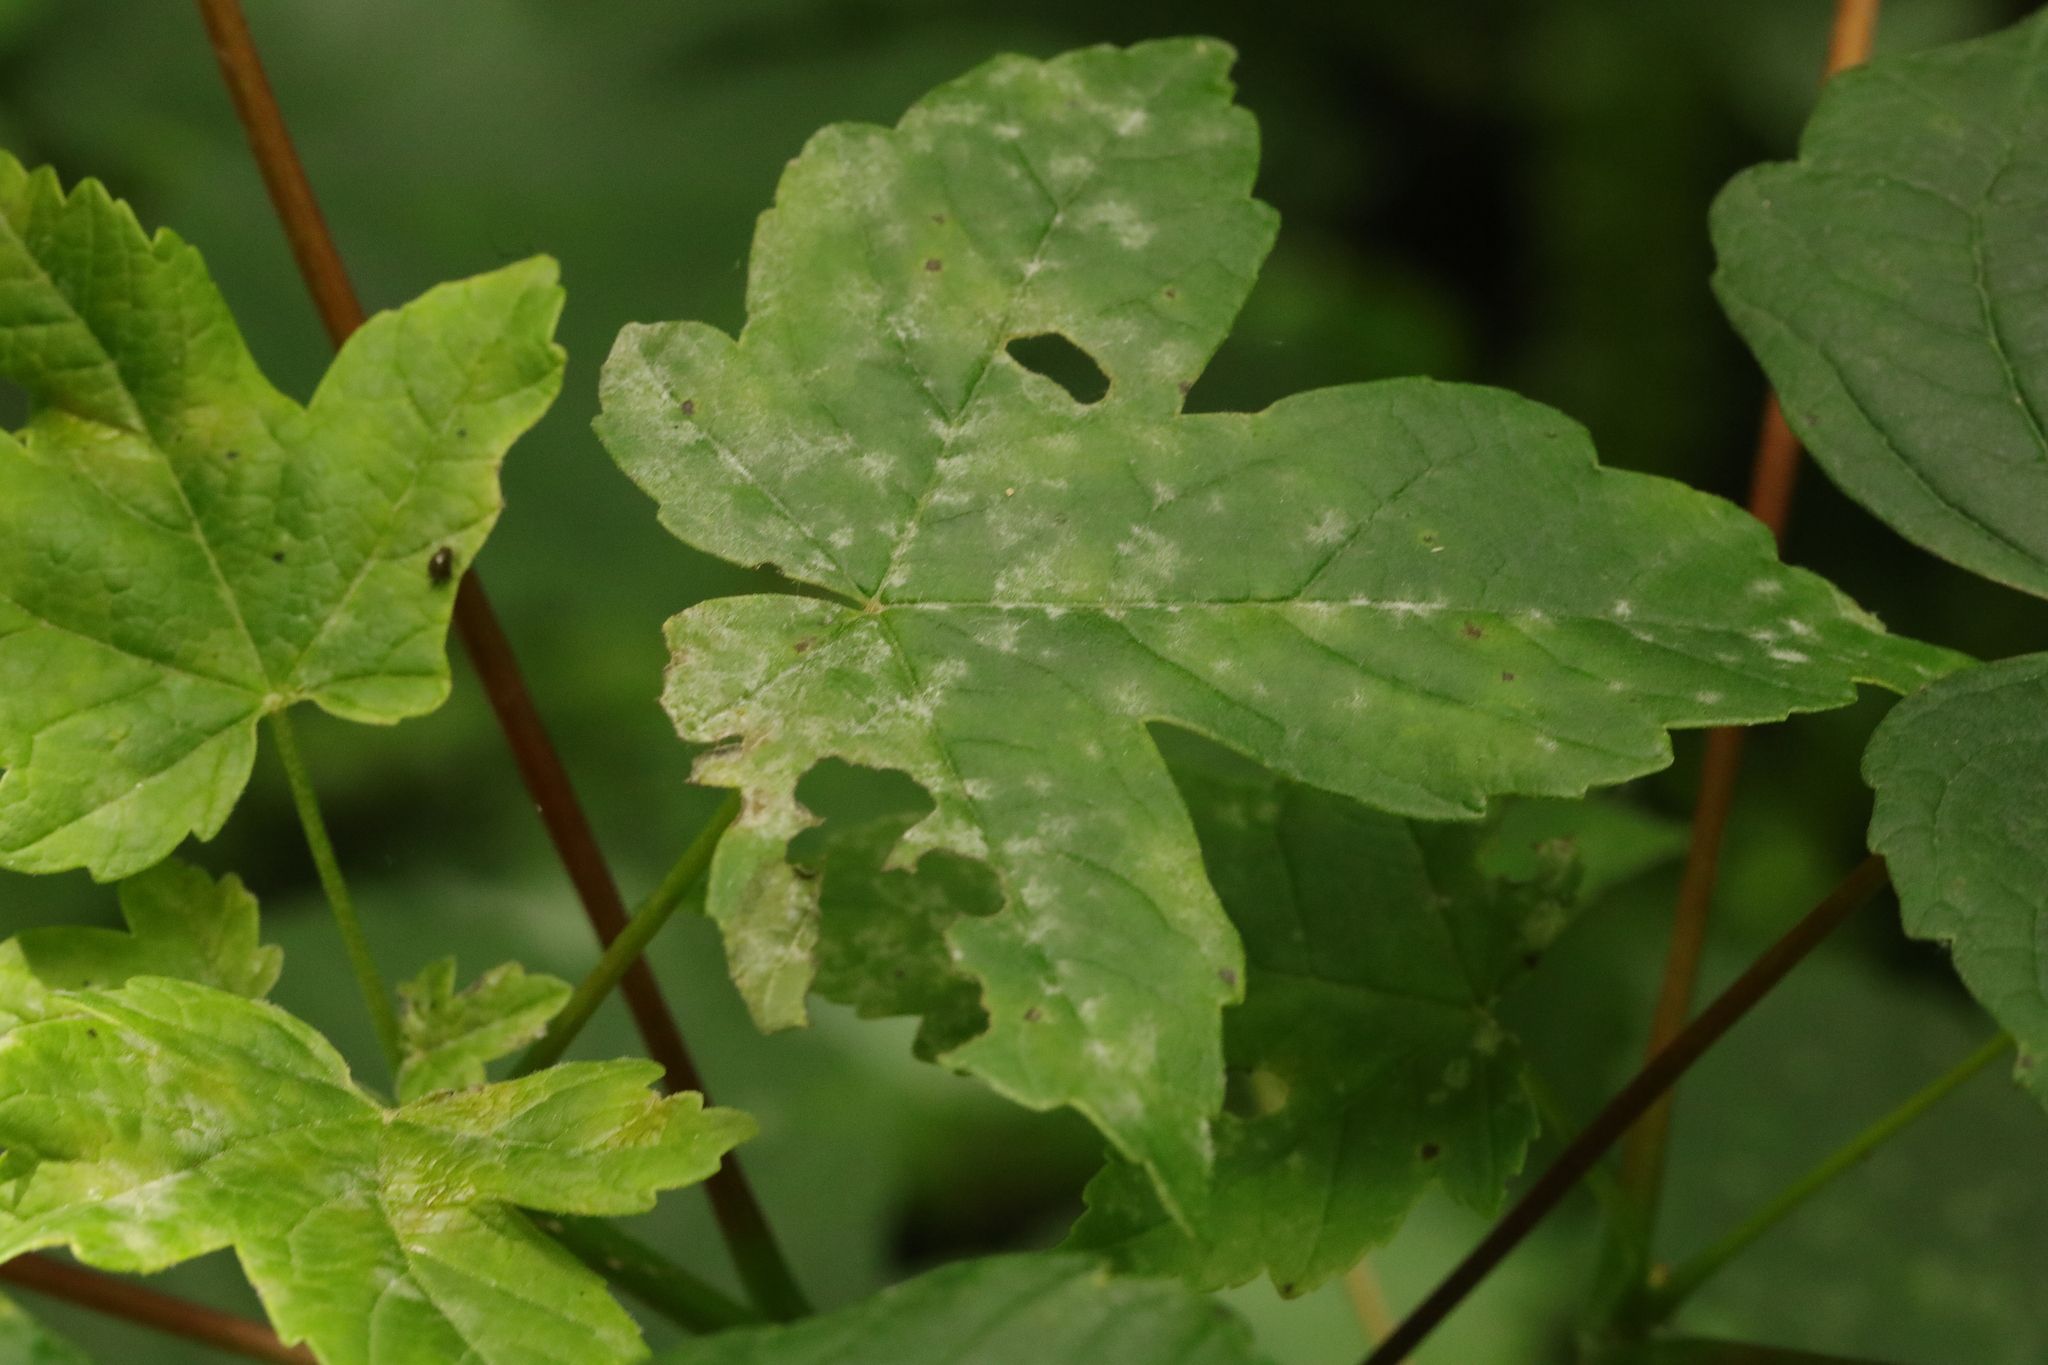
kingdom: Fungi
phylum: Ascomycota
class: Leotiomycetes
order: Helotiales
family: Erysiphaceae
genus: Sawadaea
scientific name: Sawadaea bicornis
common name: Maple mildew
